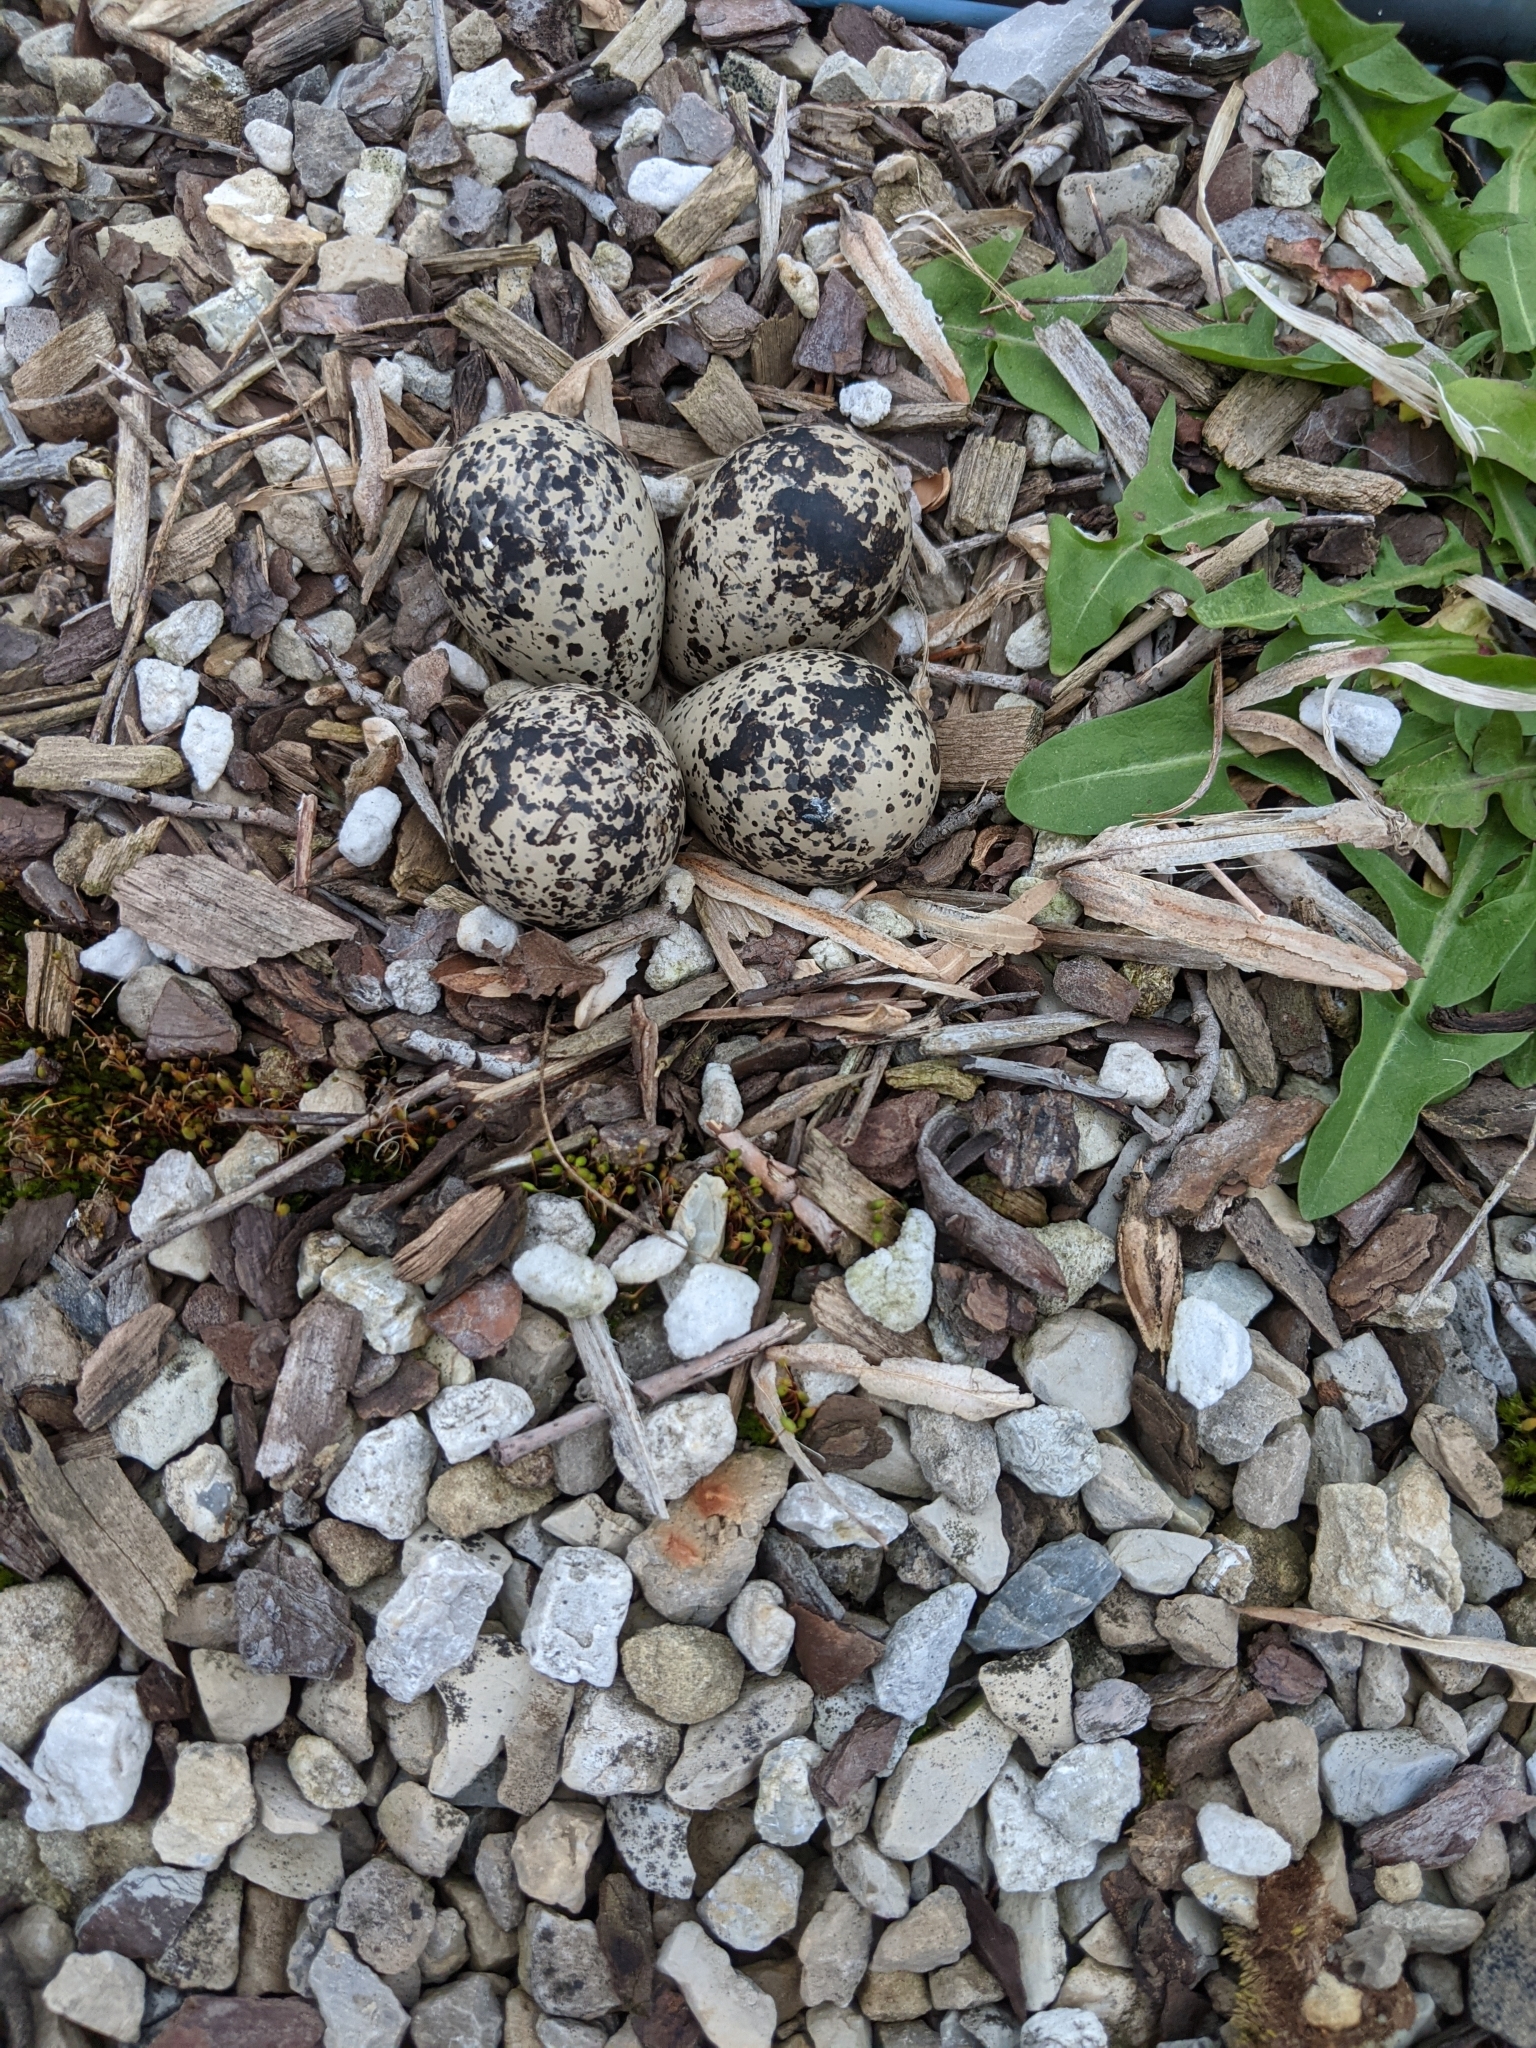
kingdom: Animalia
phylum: Chordata
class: Aves
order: Charadriiformes
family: Charadriidae
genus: Charadrius
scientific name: Charadrius vociferus
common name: Killdeer
